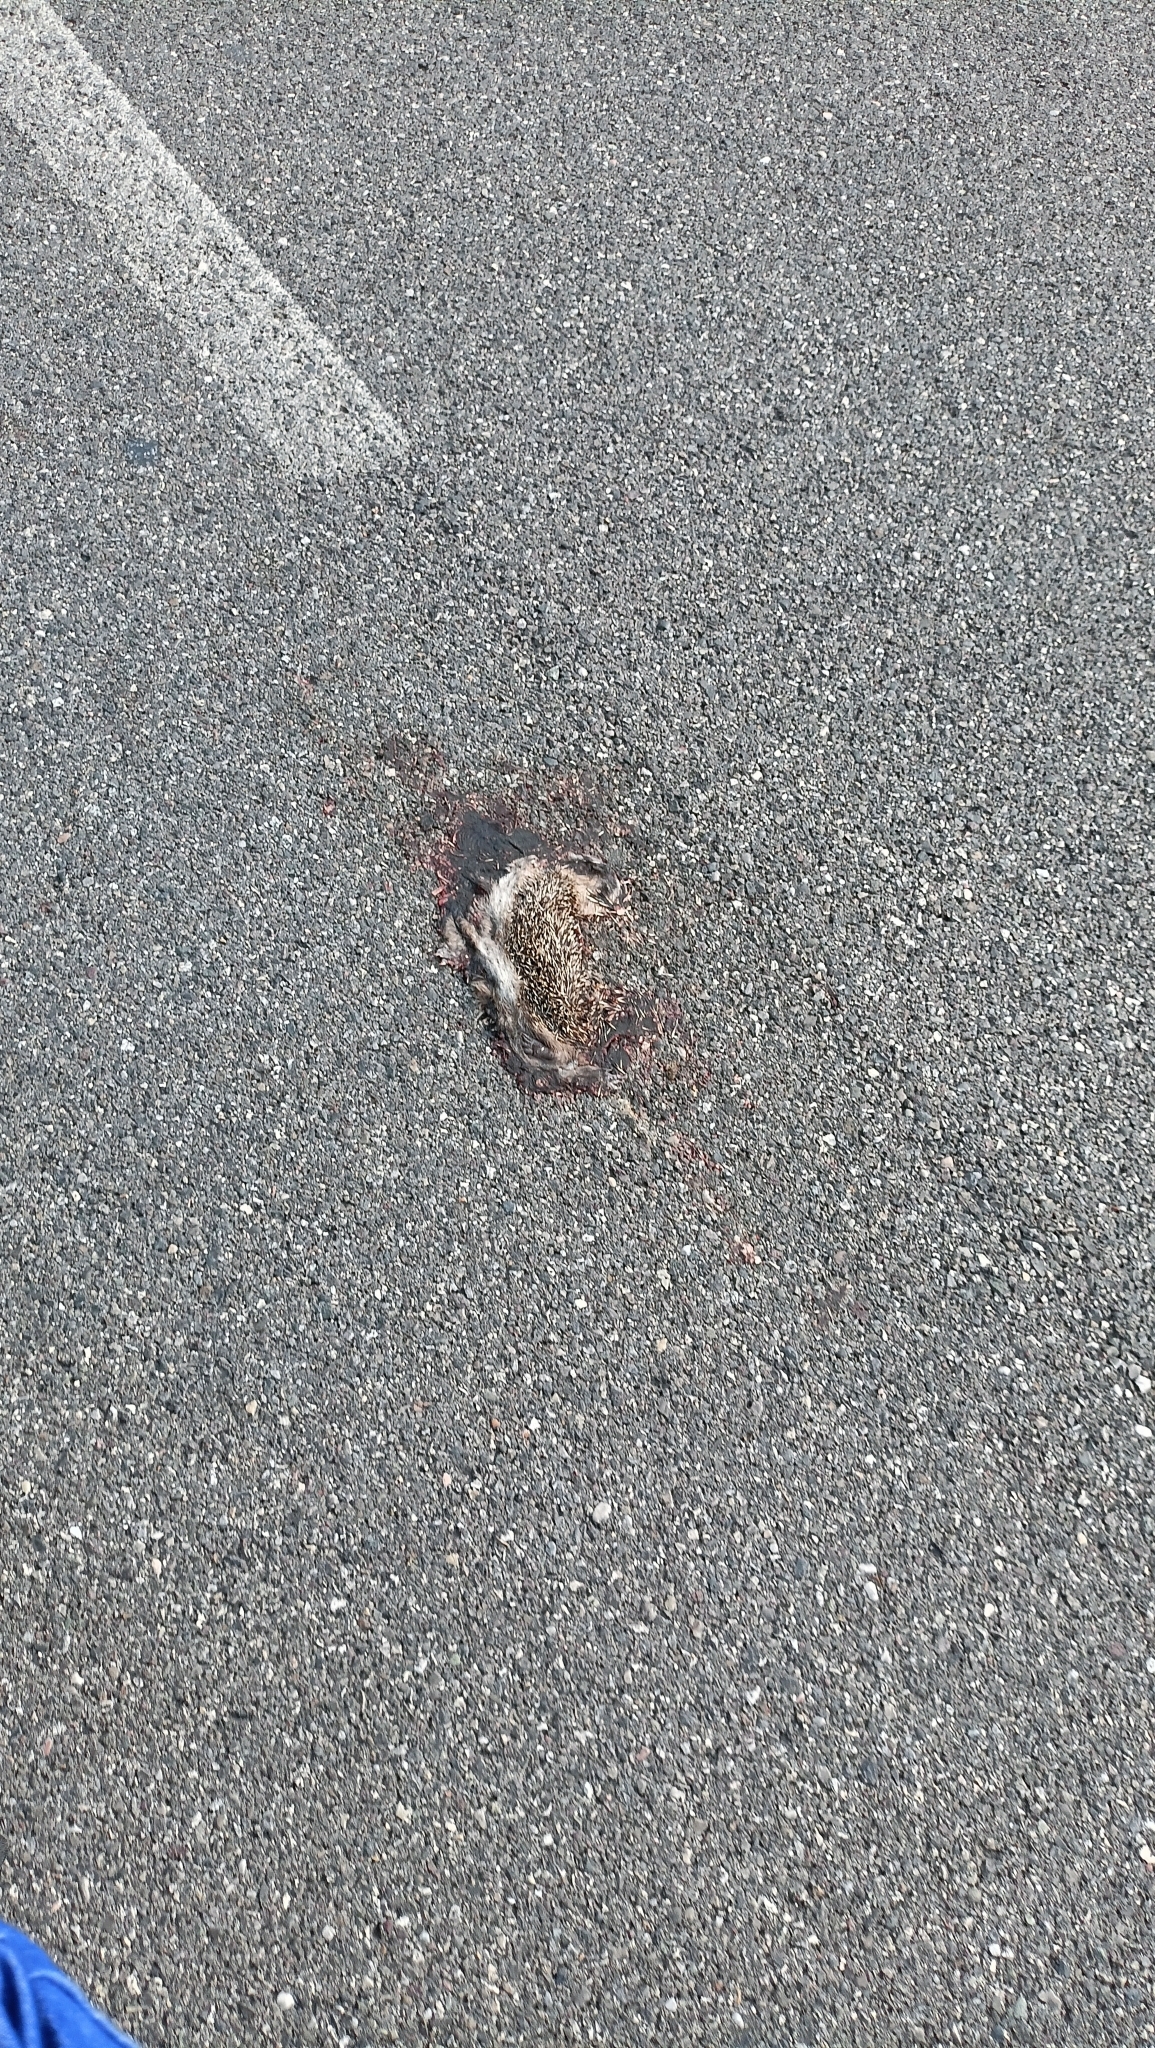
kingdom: Animalia
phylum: Chordata
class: Mammalia
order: Erinaceomorpha
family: Erinaceidae
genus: Erinaceus
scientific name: Erinaceus europaeus
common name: West european hedgehog
